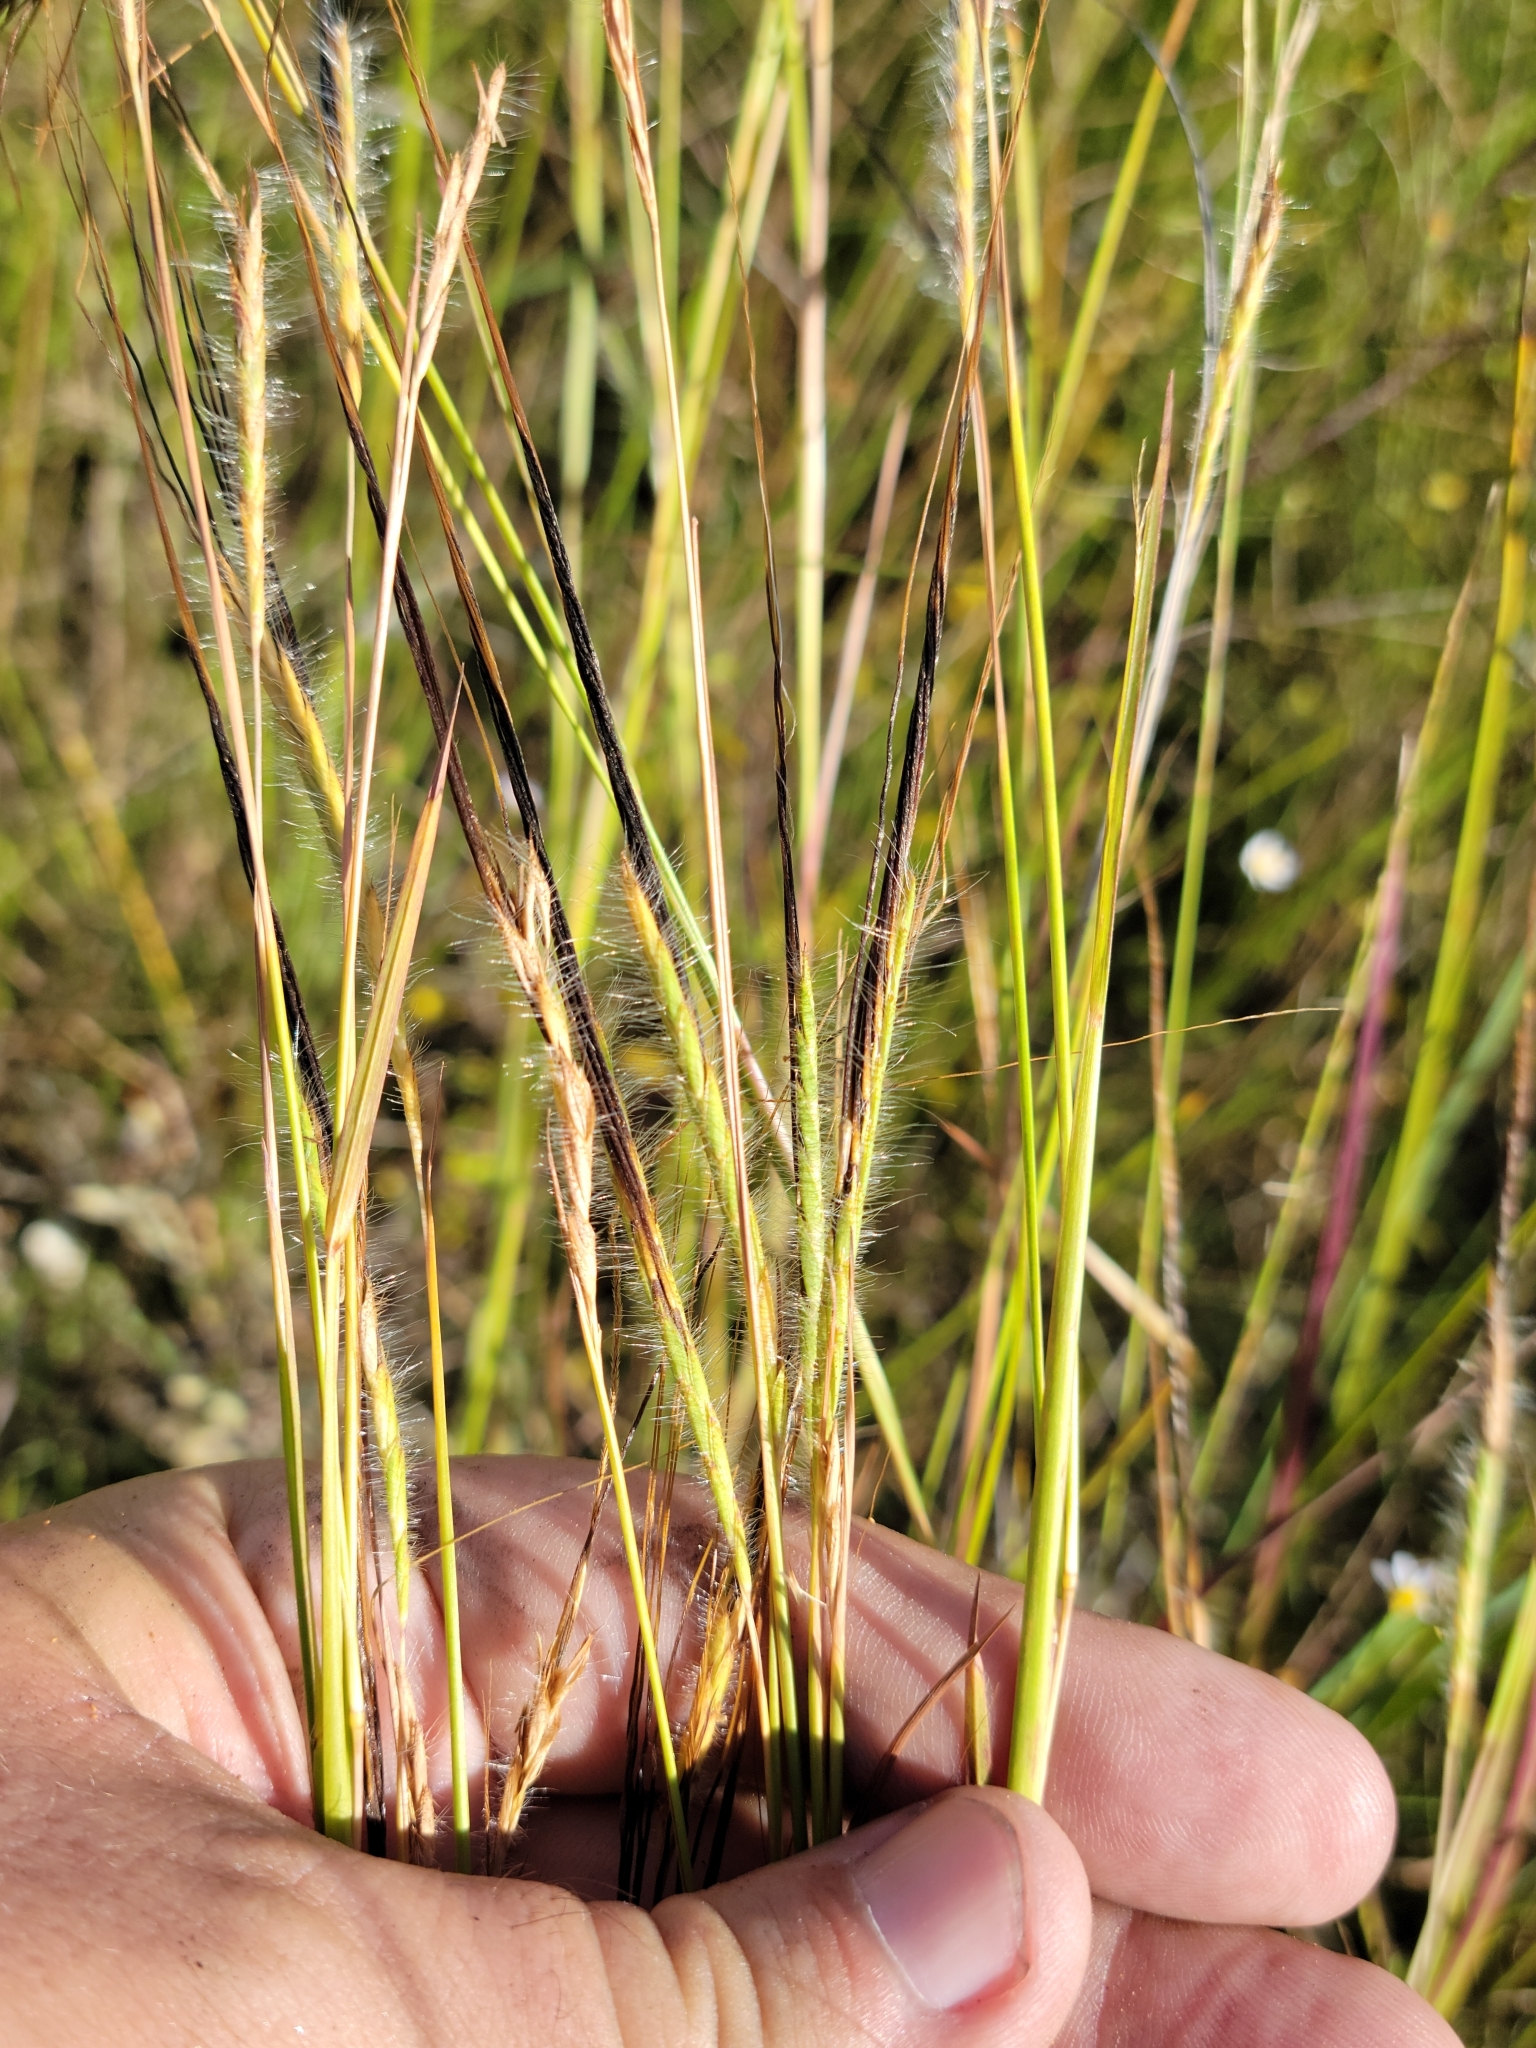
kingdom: Plantae
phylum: Tracheophyta
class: Liliopsida
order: Poales
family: Poaceae
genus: Heteropogon
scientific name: Heteropogon contortus
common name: Tanglehead
